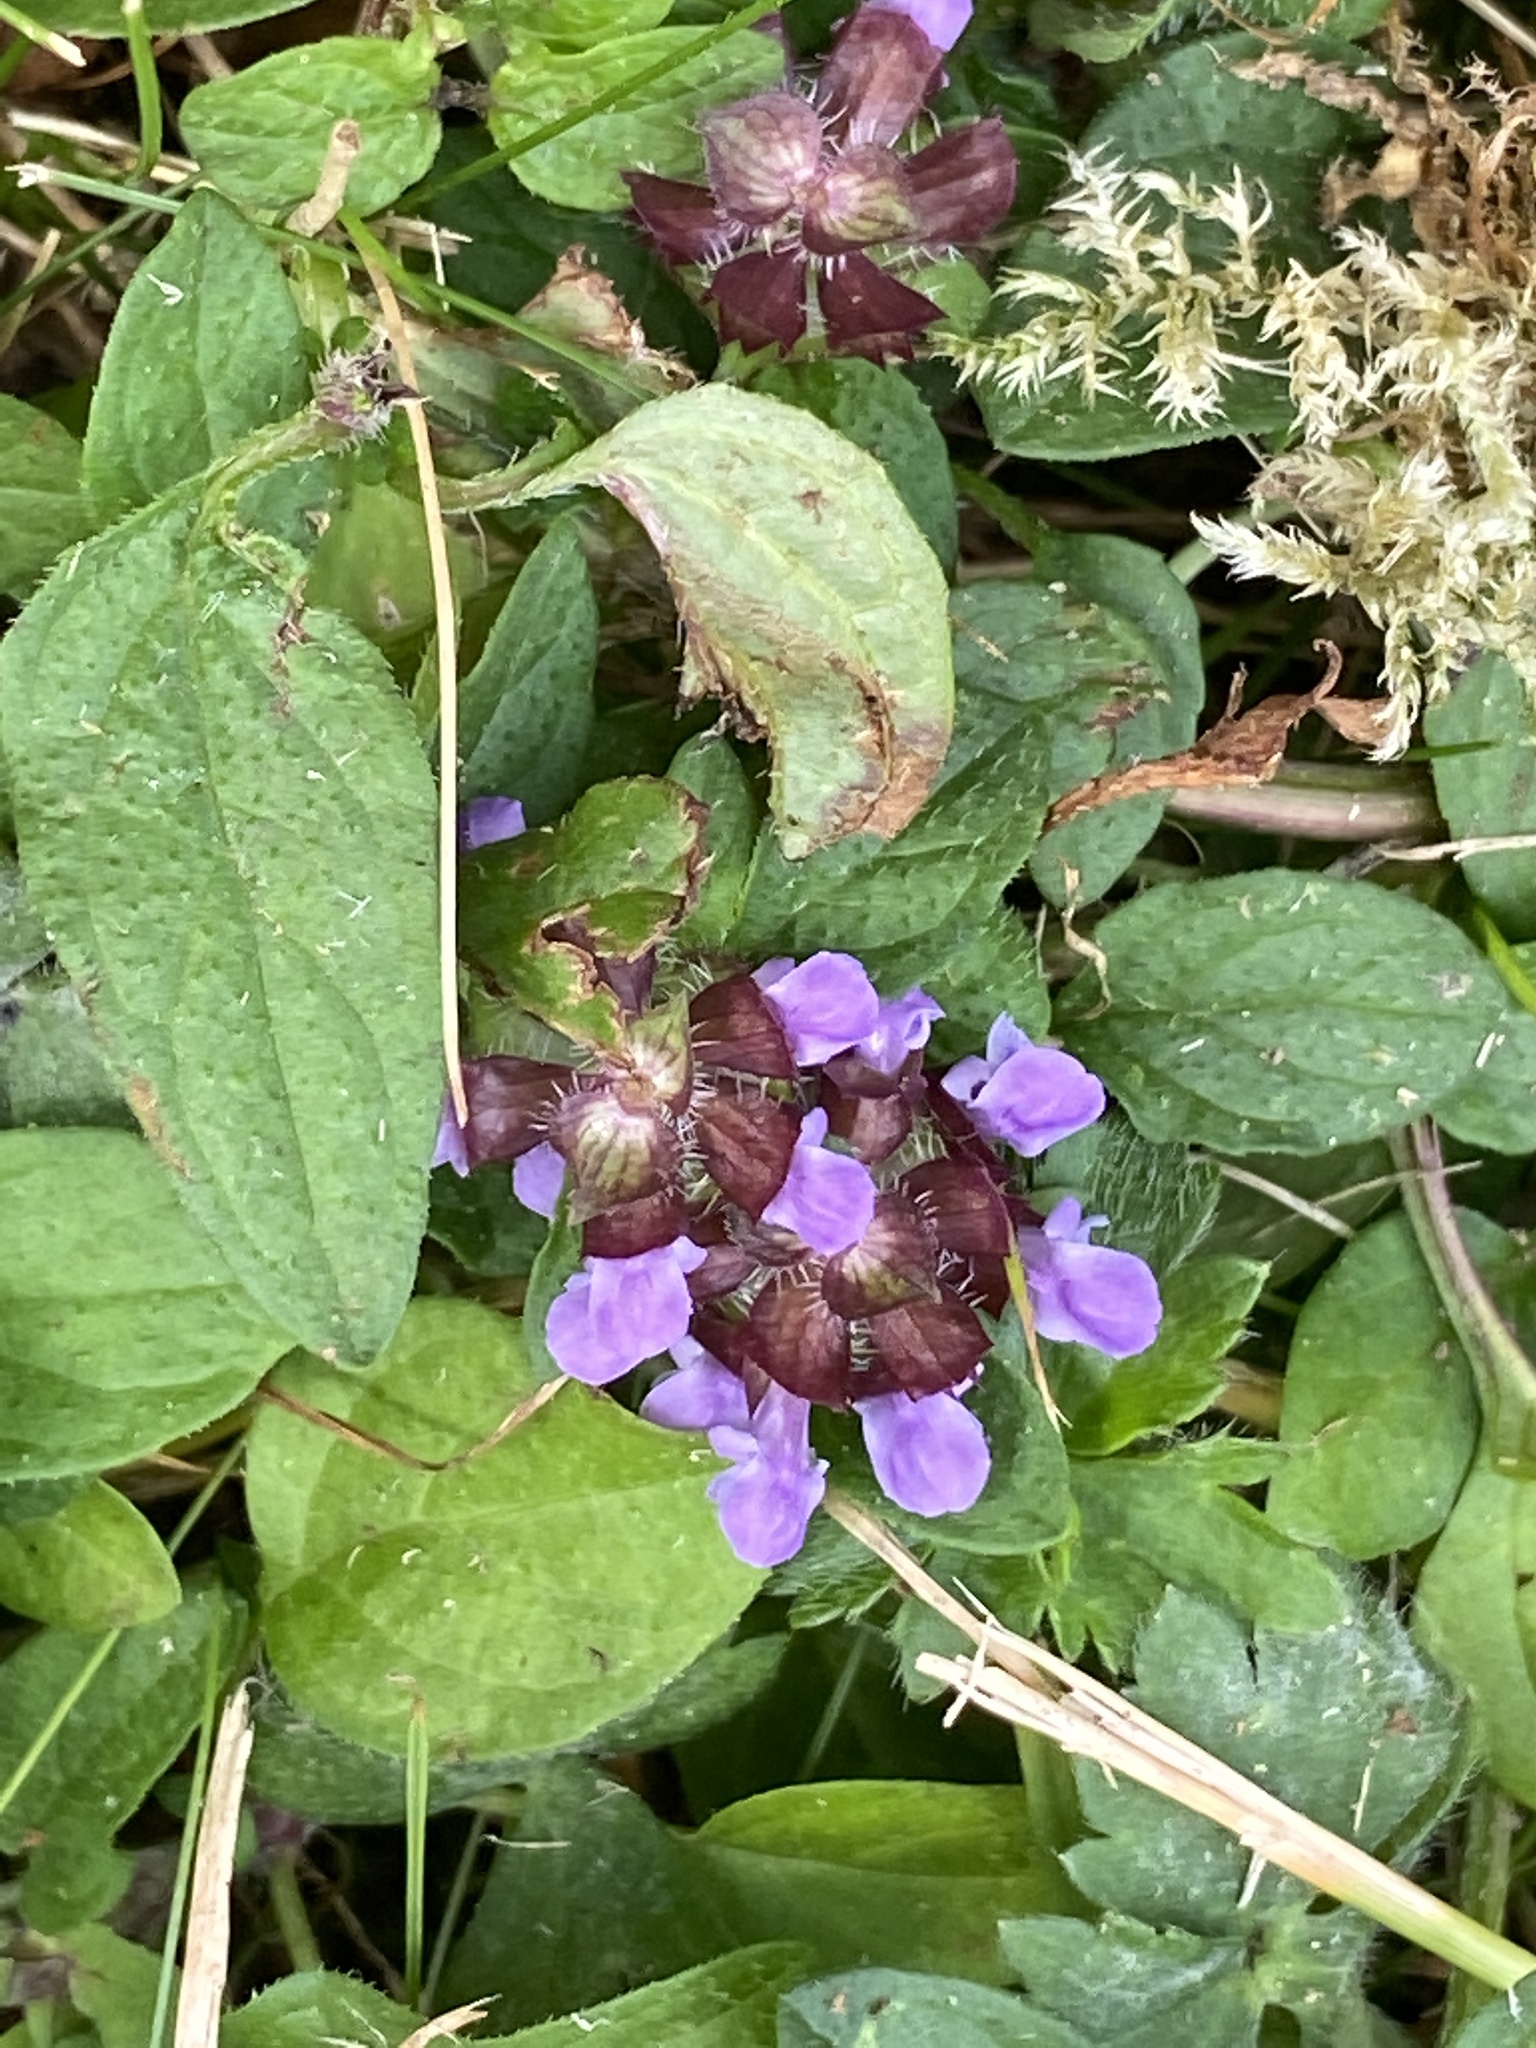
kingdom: Plantae
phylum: Tracheophyta
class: Magnoliopsida
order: Lamiales
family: Lamiaceae
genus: Prunella
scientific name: Prunella vulgaris
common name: Heal-all
